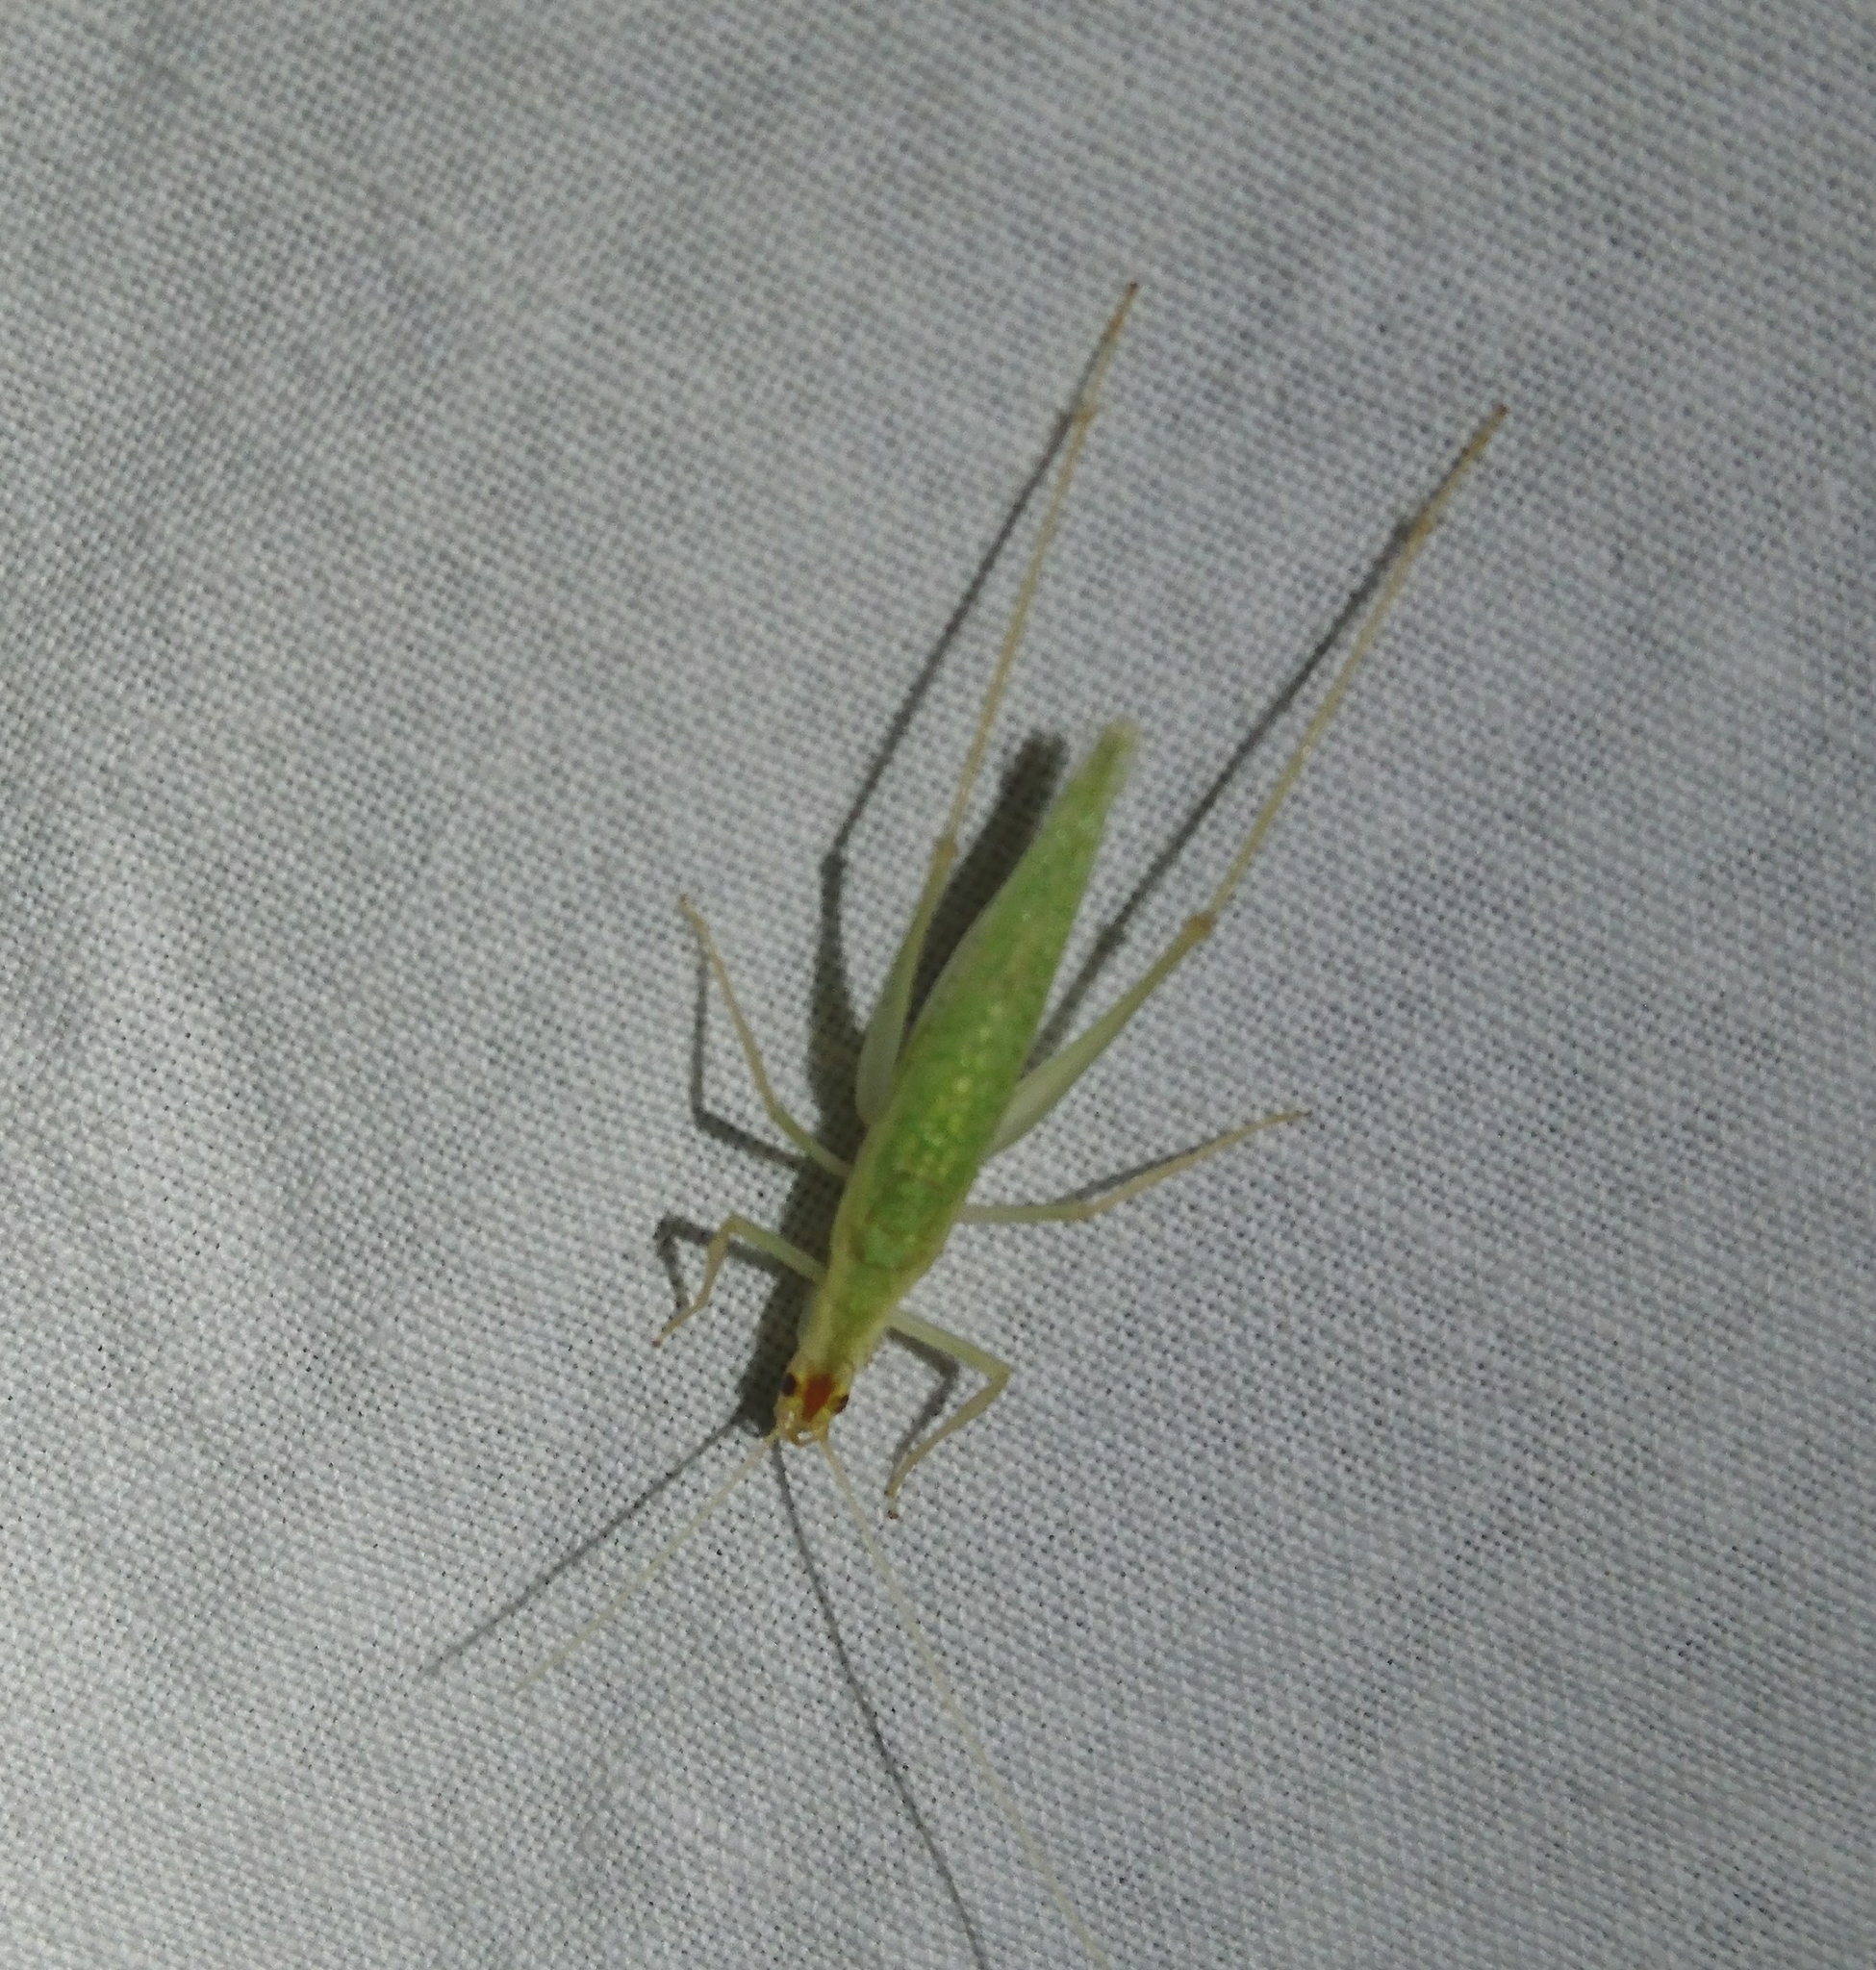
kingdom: Animalia
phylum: Arthropoda
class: Insecta
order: Orthoptera
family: Gryllidae
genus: Oecanthus
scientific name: Oecanthus
